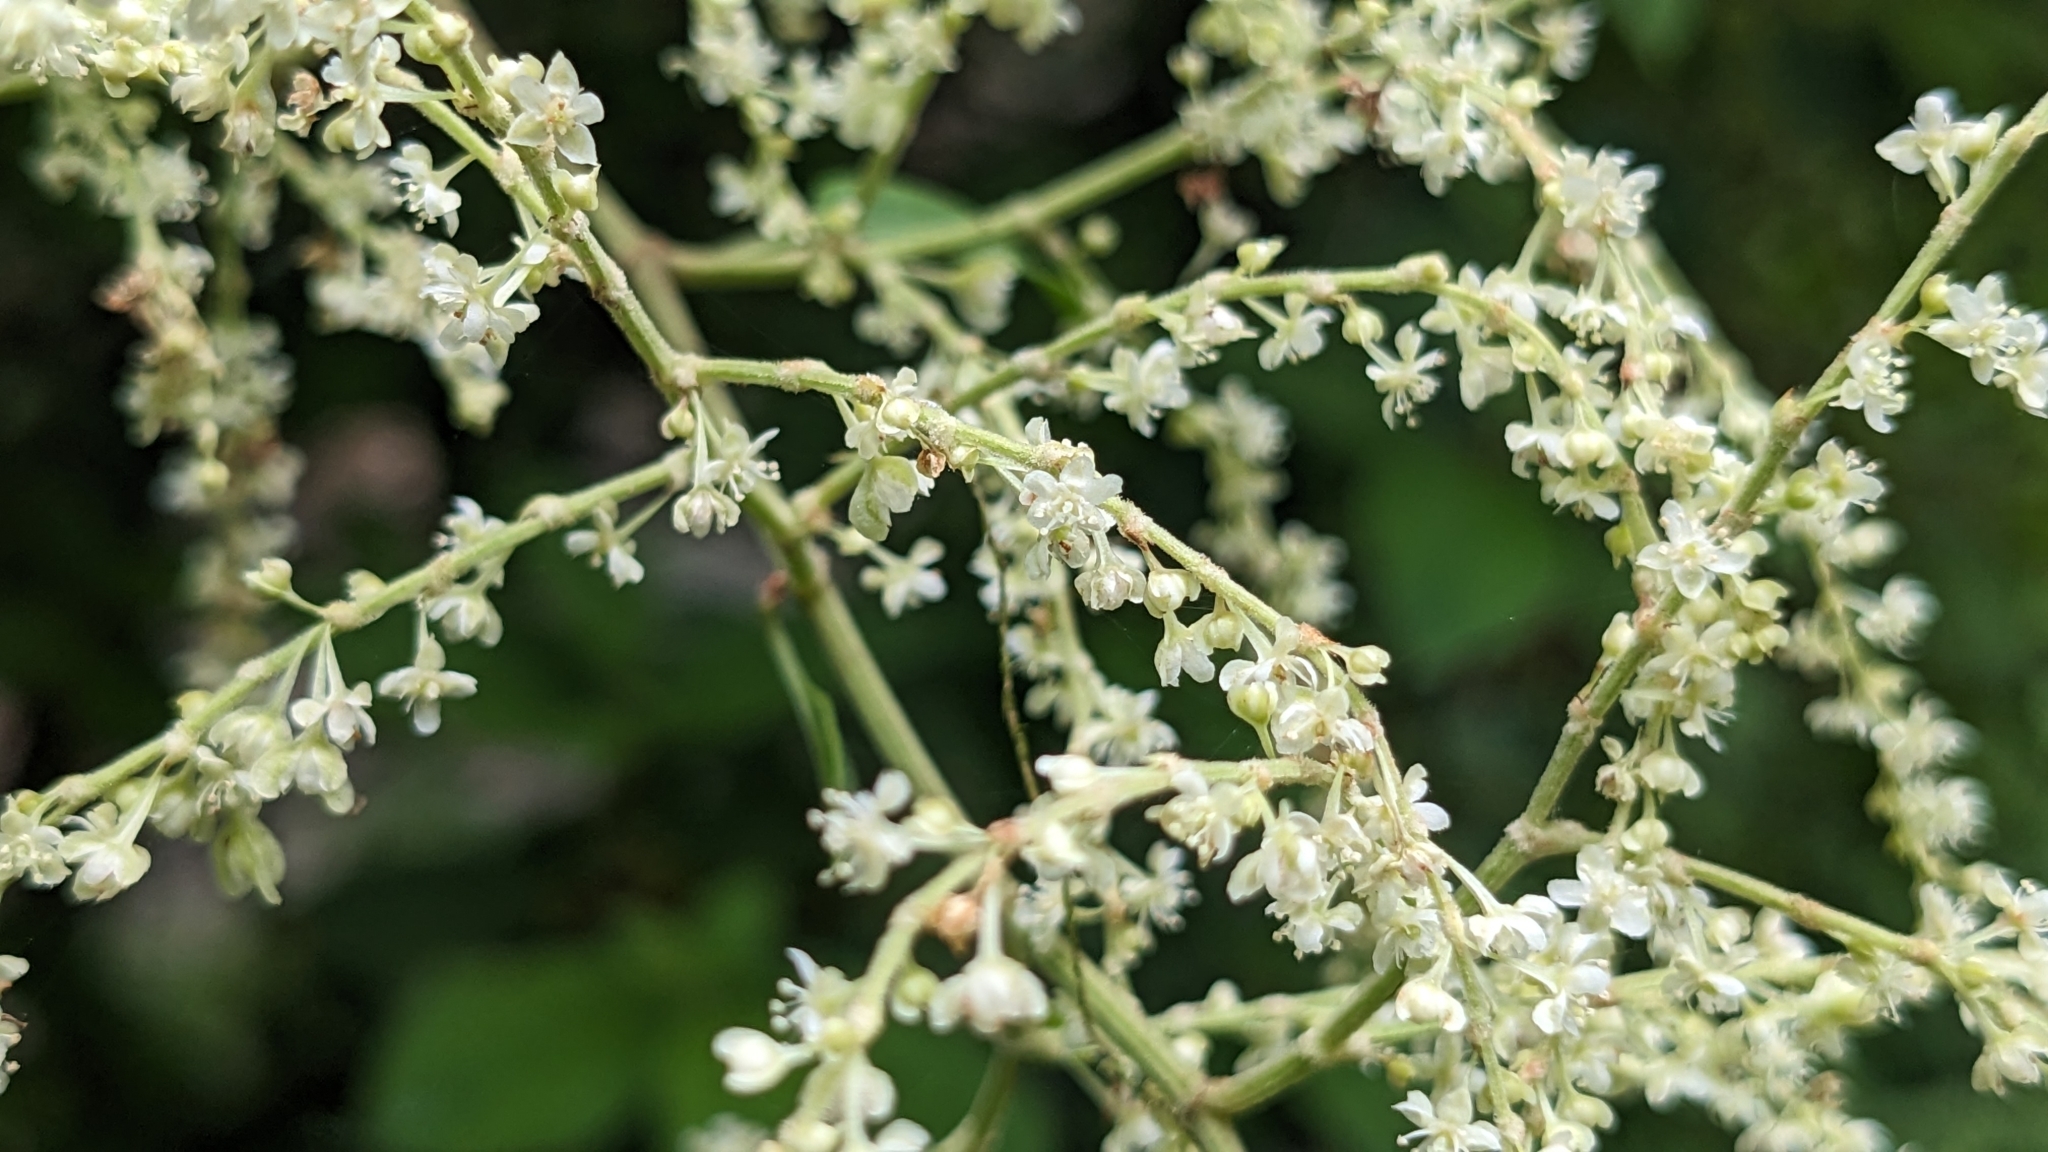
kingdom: Plantae
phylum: Tracheophyta
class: Magnoliopsida
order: Caryophyllales
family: Polygonaceae
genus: Reynoutria
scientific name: Reynoutria multiflora
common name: Chinese fleeceflower
